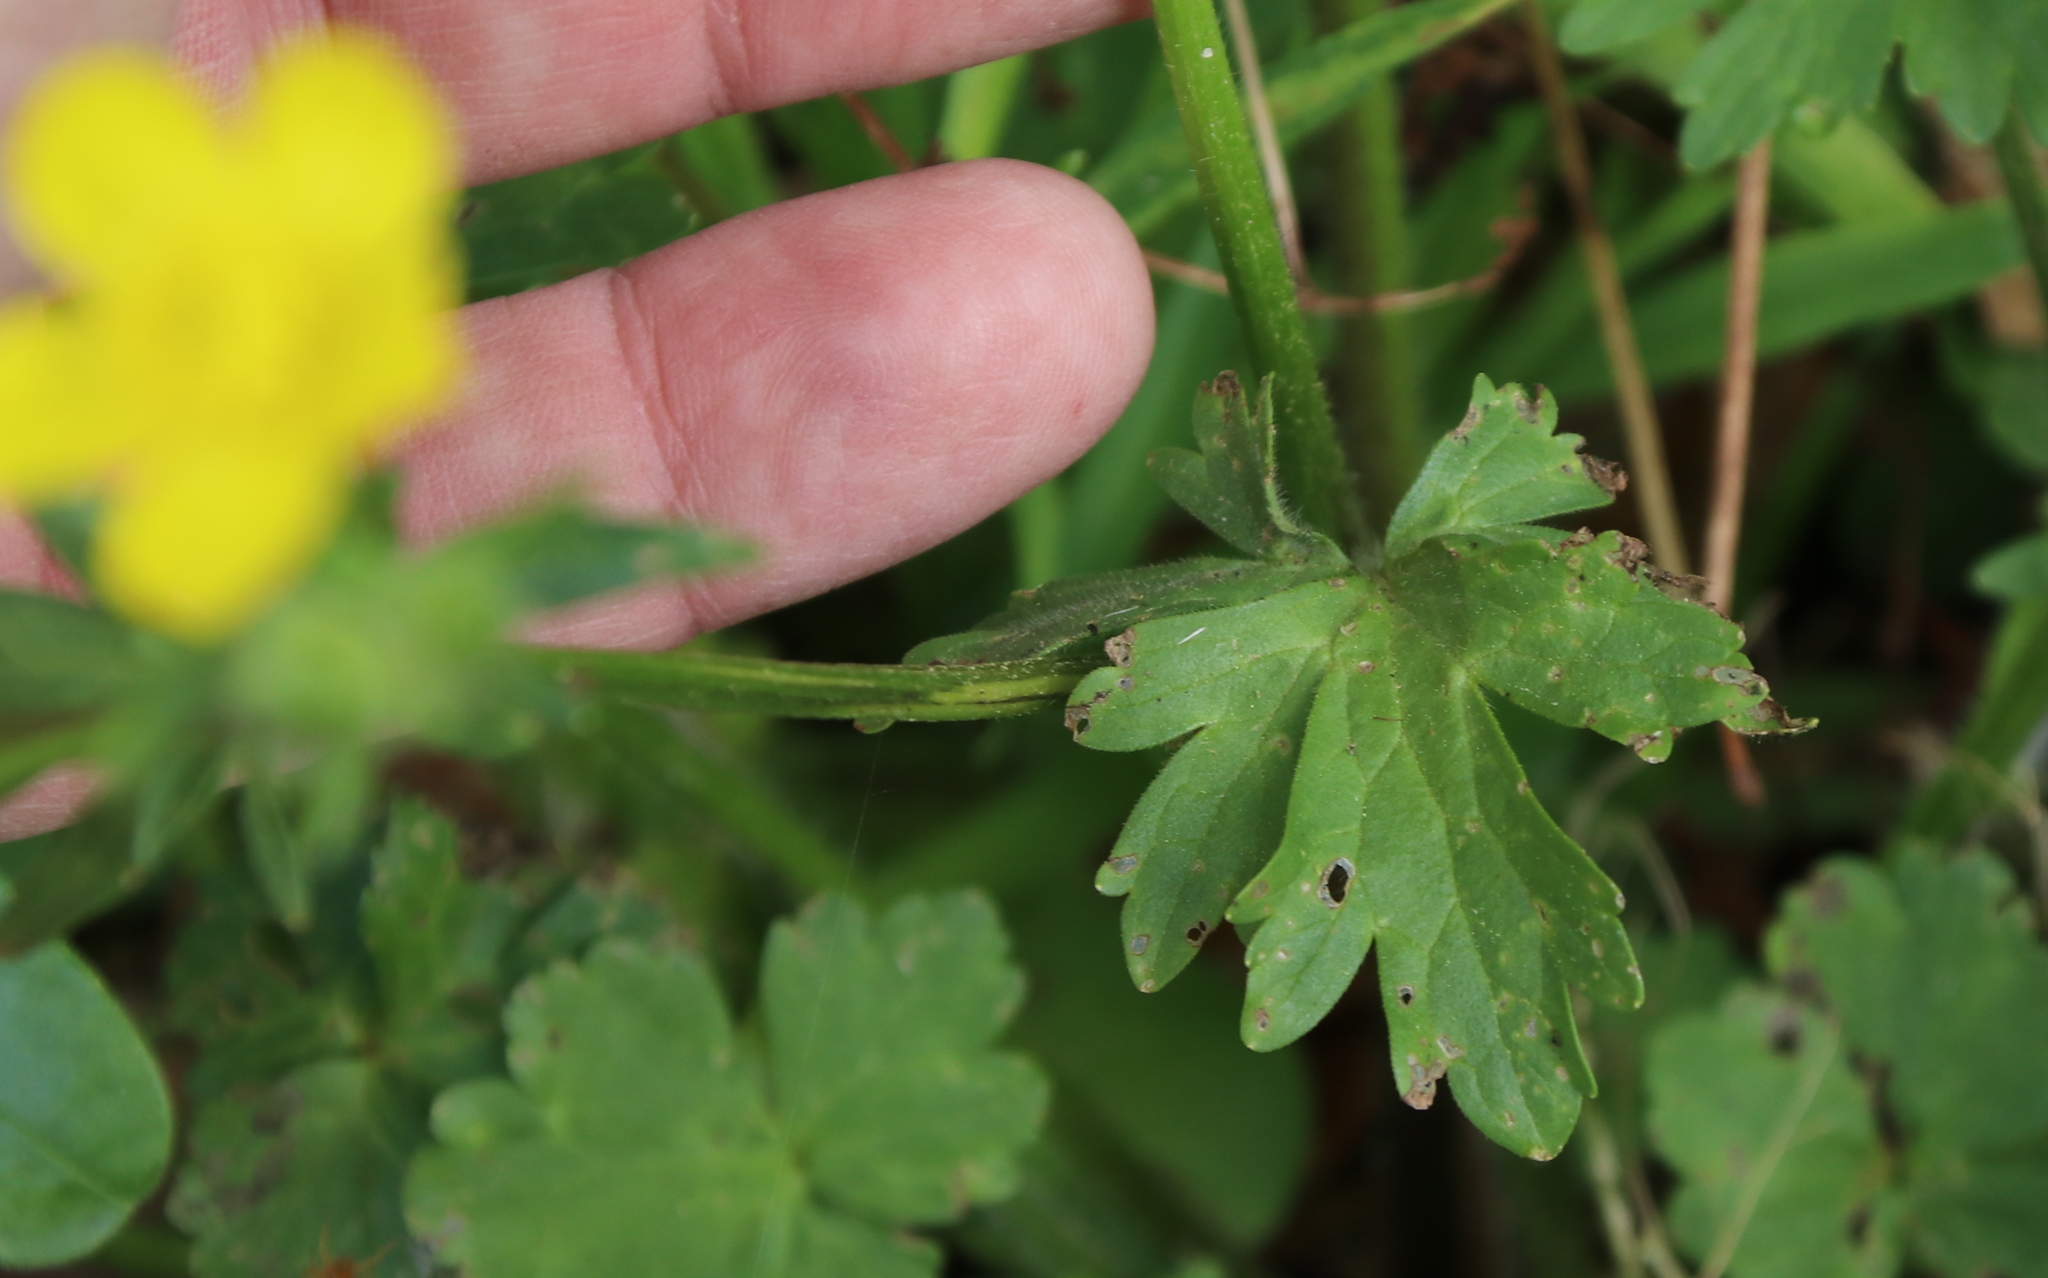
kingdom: Plantae
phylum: Tracheophyta
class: Magnoliopsida
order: Ranunculales
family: Ranunculaceae
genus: Ranunculus
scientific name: Ranunculus muricatus
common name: Rough-fruited buttercup
